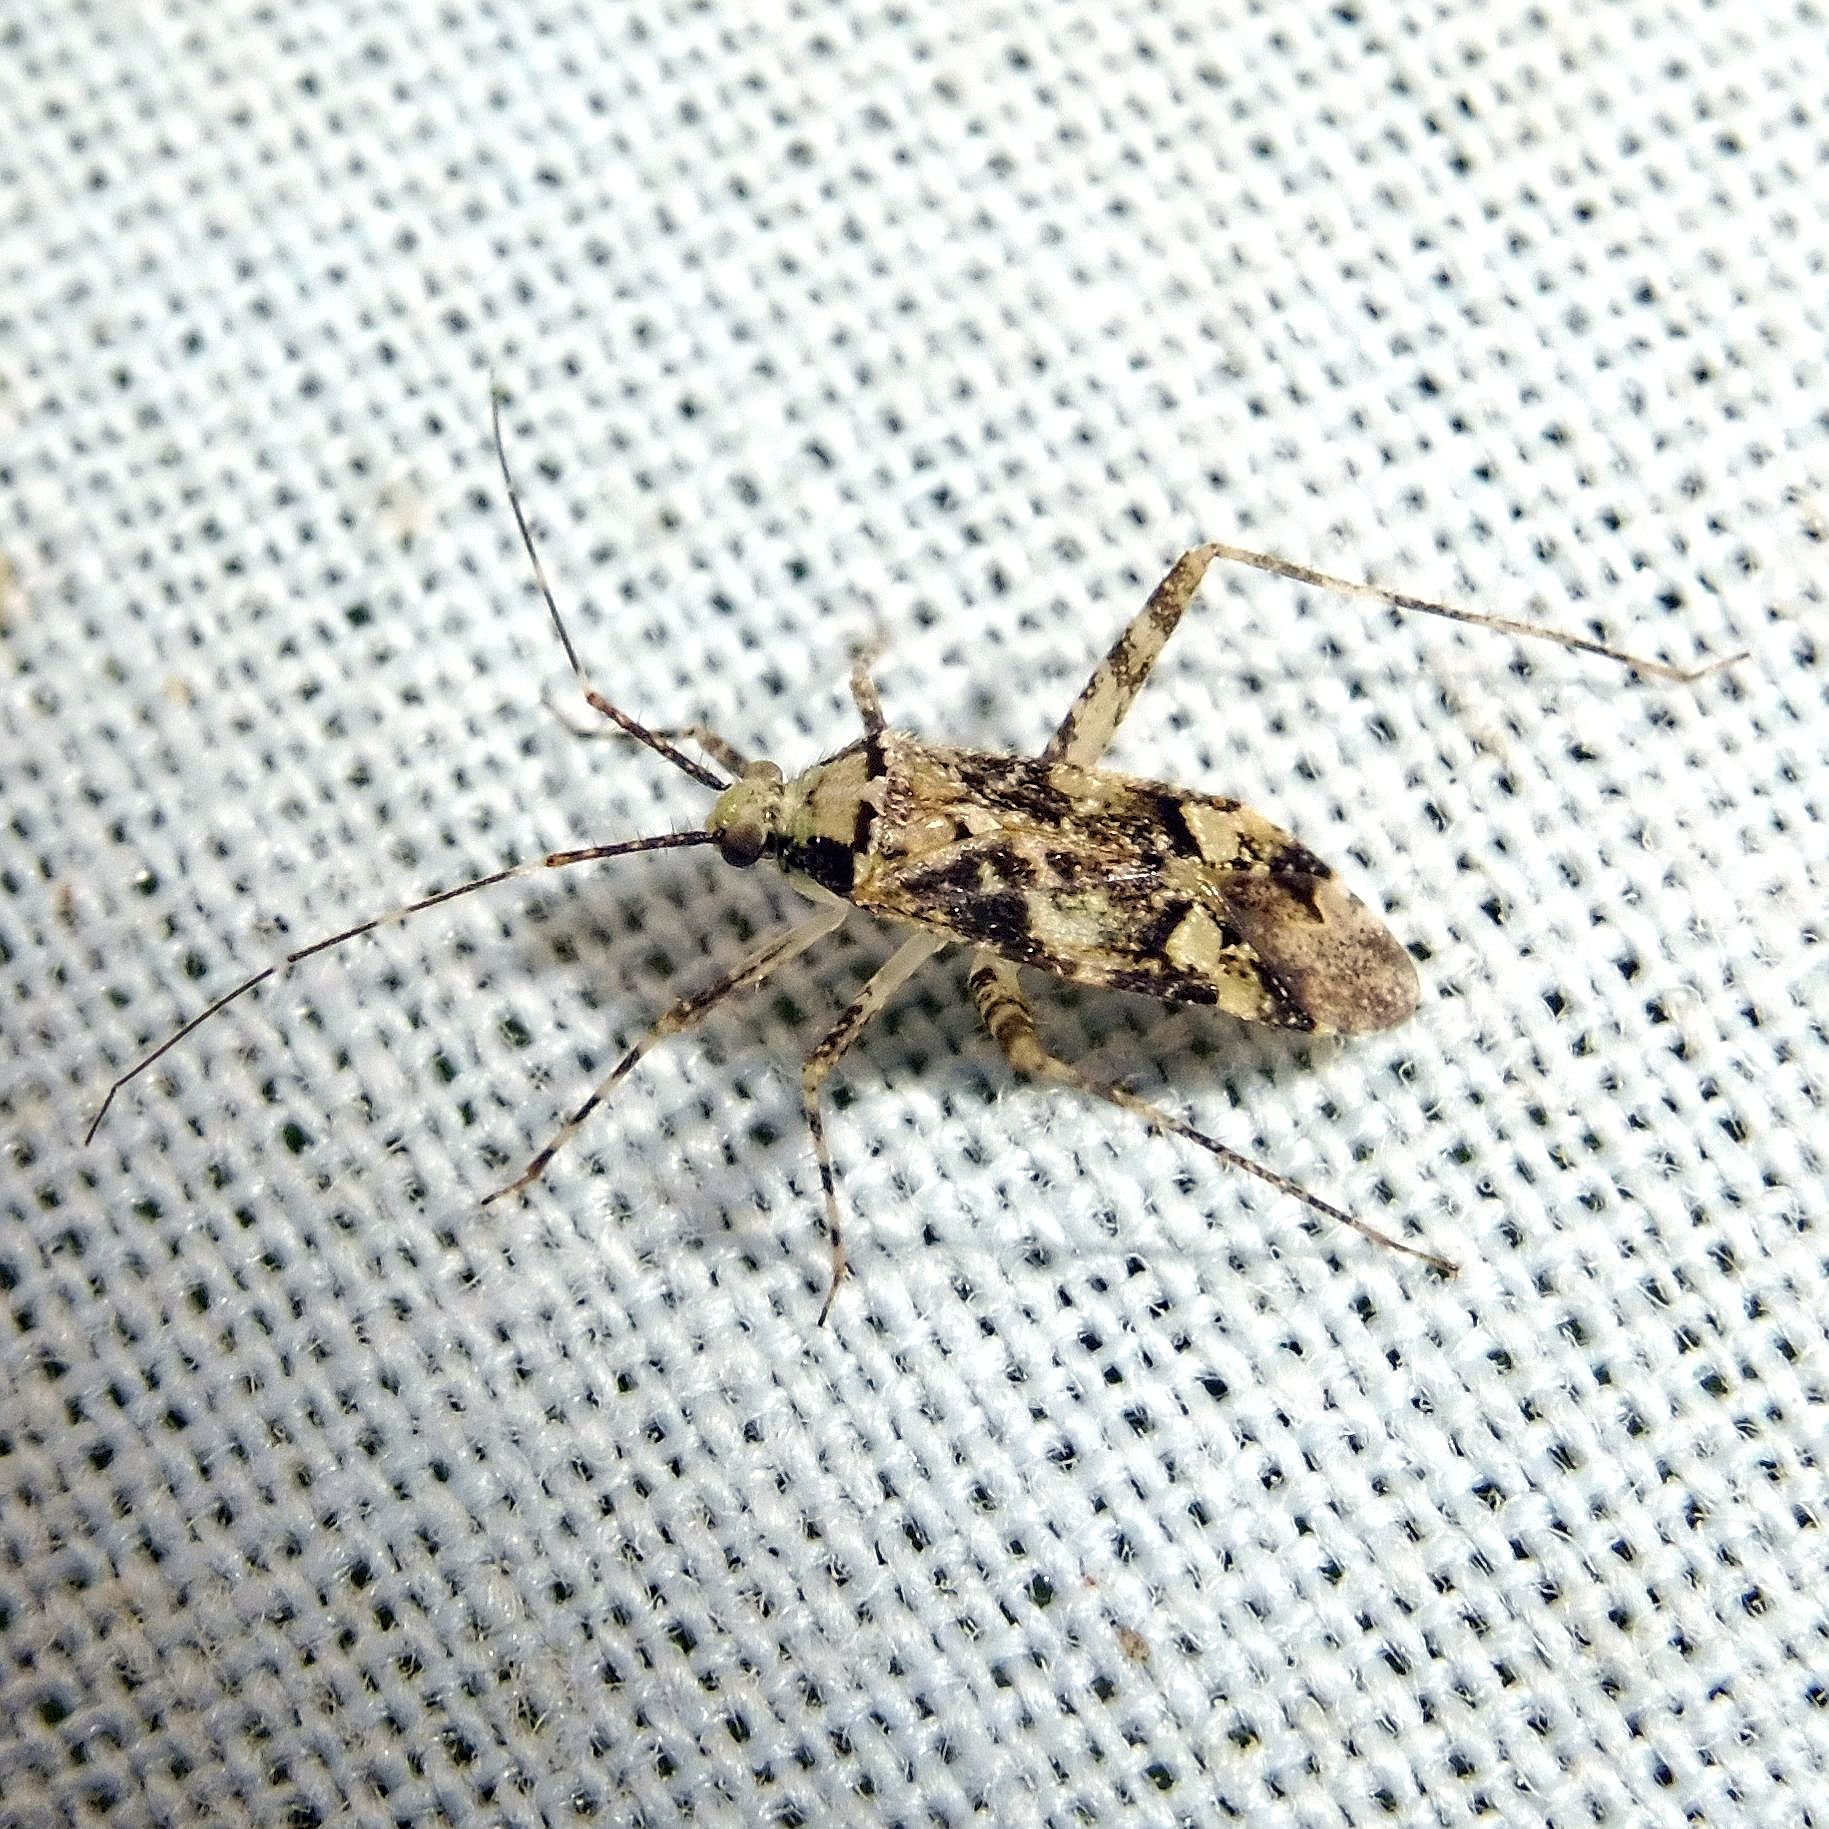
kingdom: Animalia
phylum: Arthropoda
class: Insecta
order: Hemiptera
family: Miridae
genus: Phytocoris
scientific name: Phytocoris tiliae
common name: Plant bug
